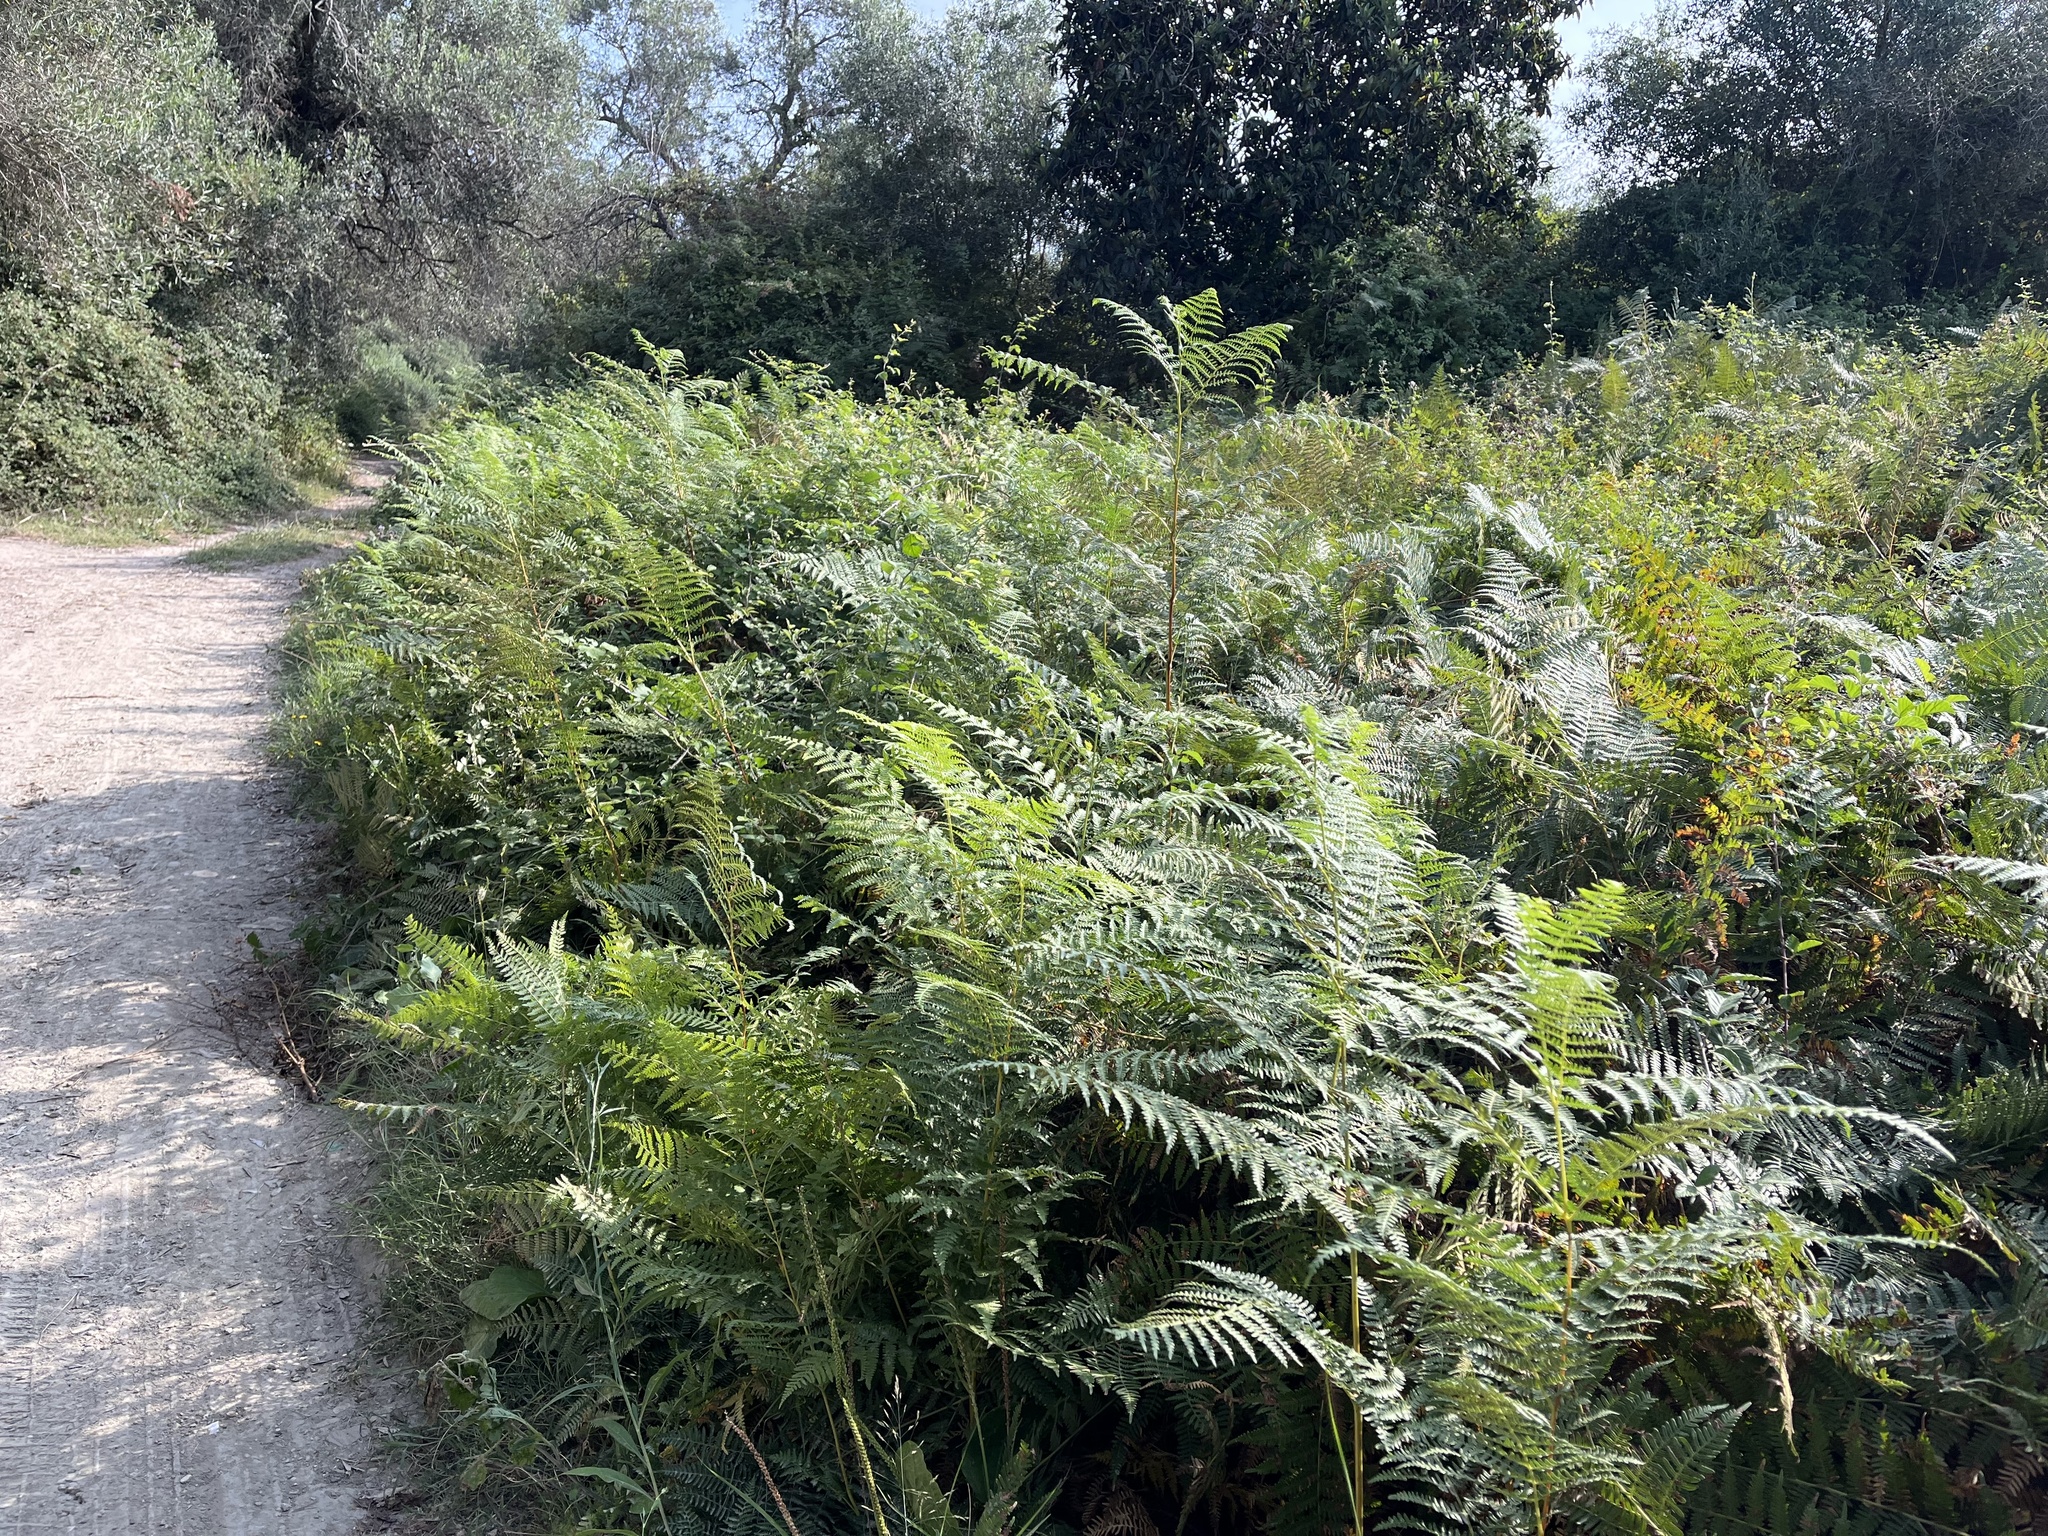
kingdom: Plantae
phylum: Tracheophyta
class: Polypodiopsida
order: Polypodiales
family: Dennstaedtiaceae
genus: Pteridium
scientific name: Pteridium aquilinum
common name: Bracken
